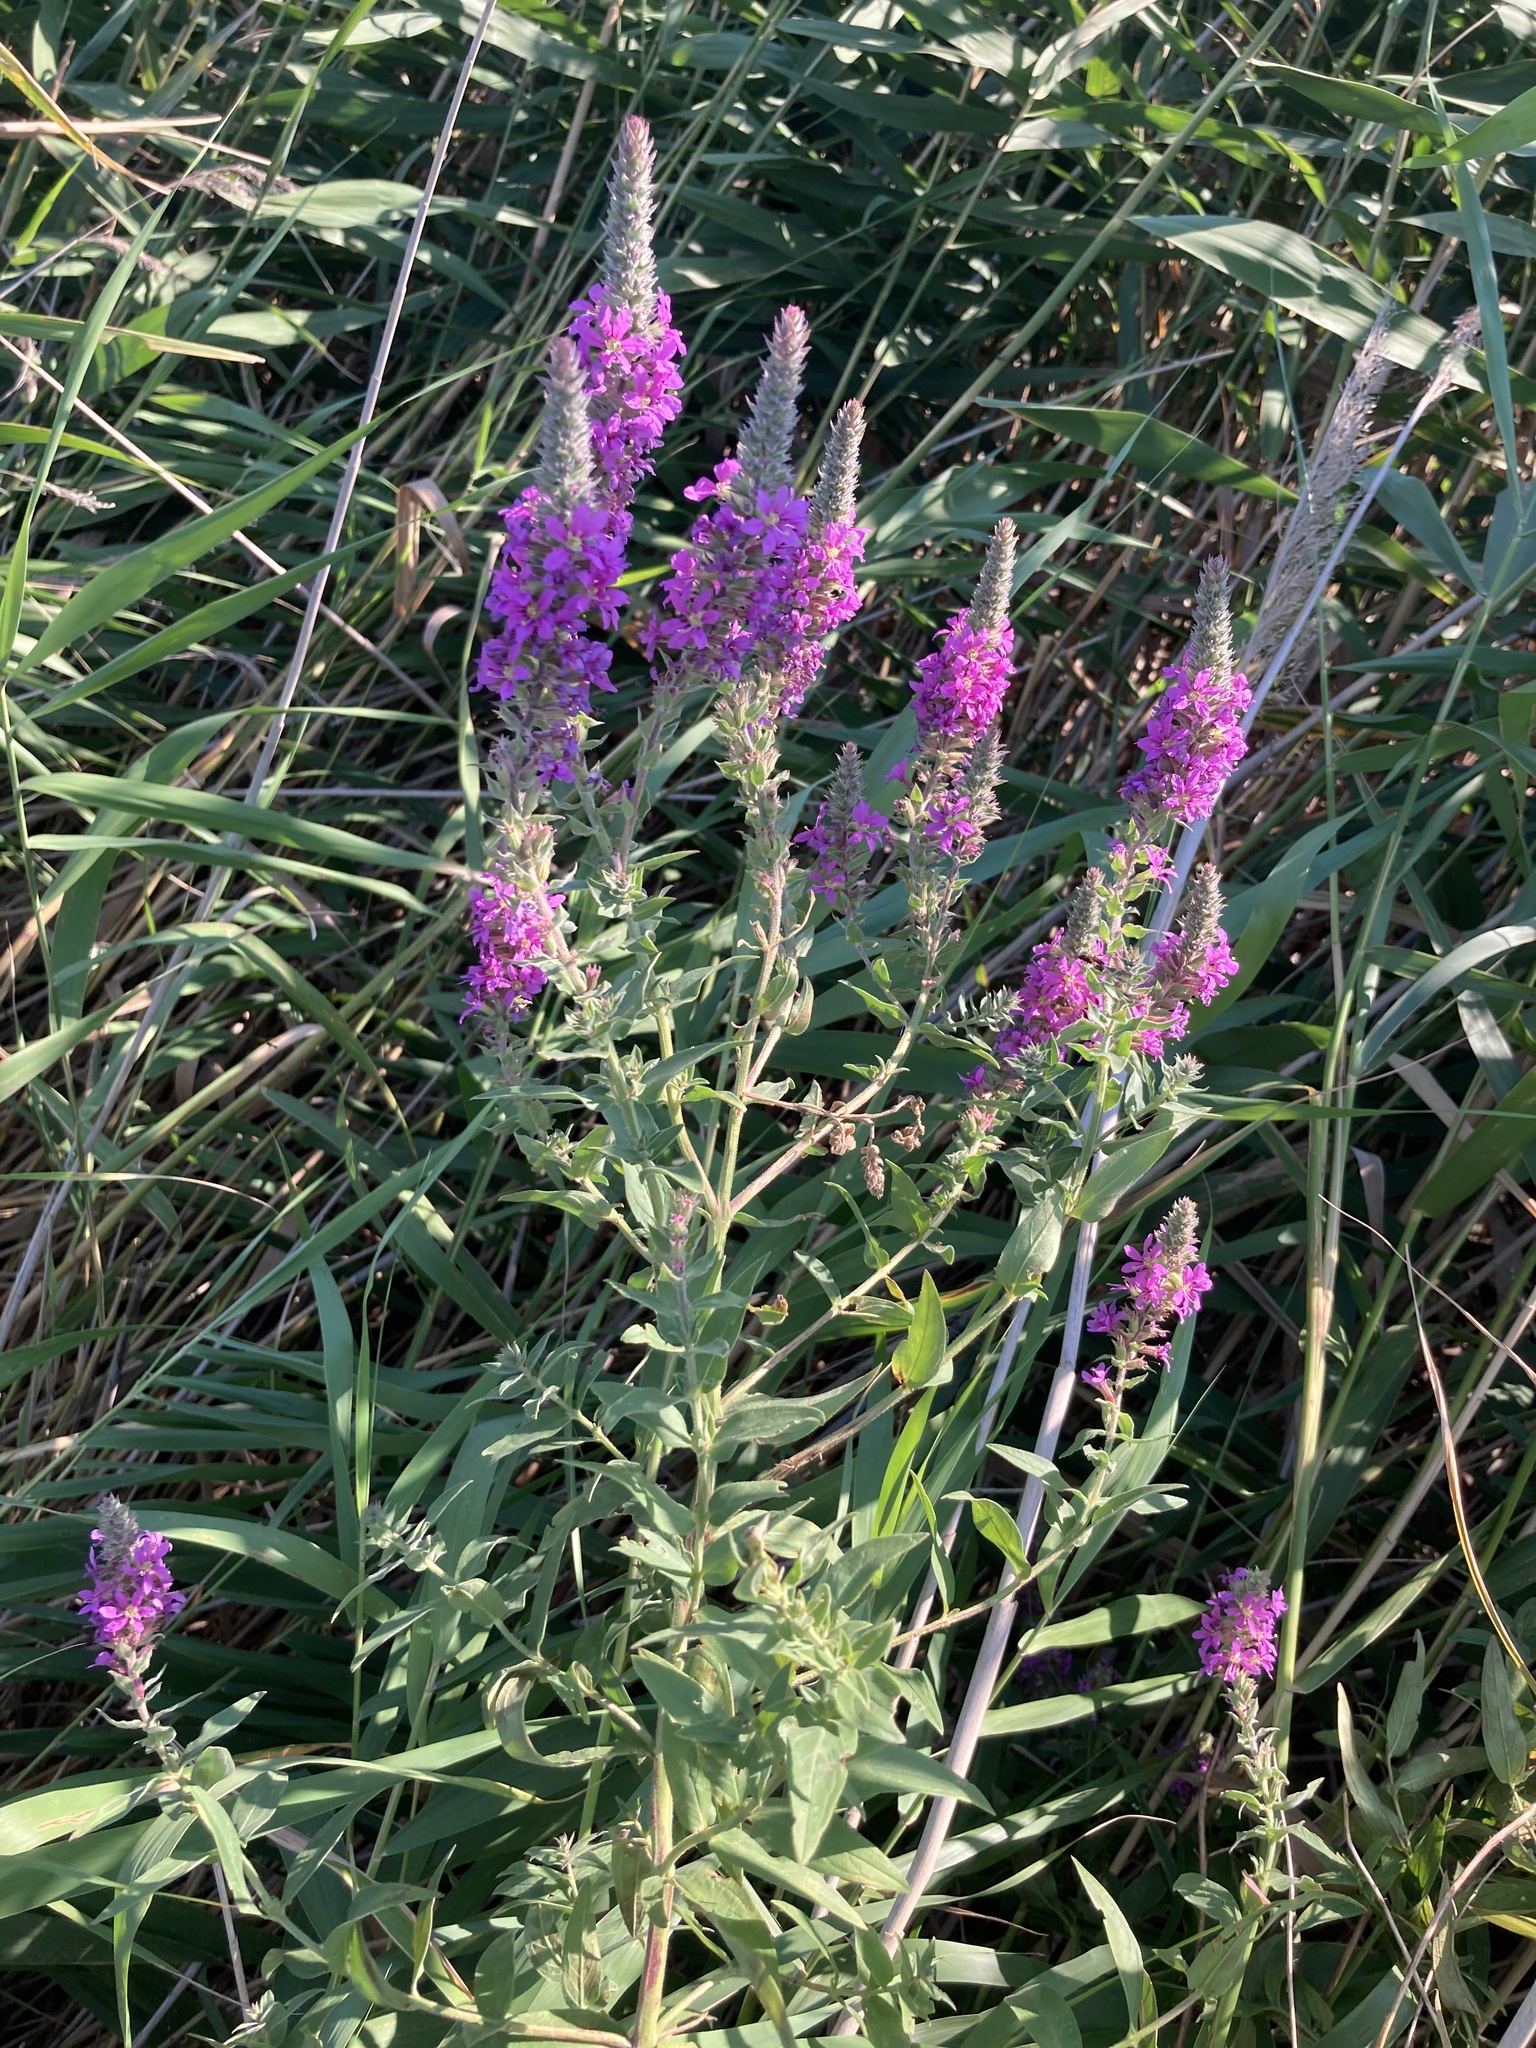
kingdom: Plantae
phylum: Tracheophyta
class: Magnoliopsida
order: Myrtales
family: Lythraceae
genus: Lythrum
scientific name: Lythrum salicaria
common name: Purple loosestrife
